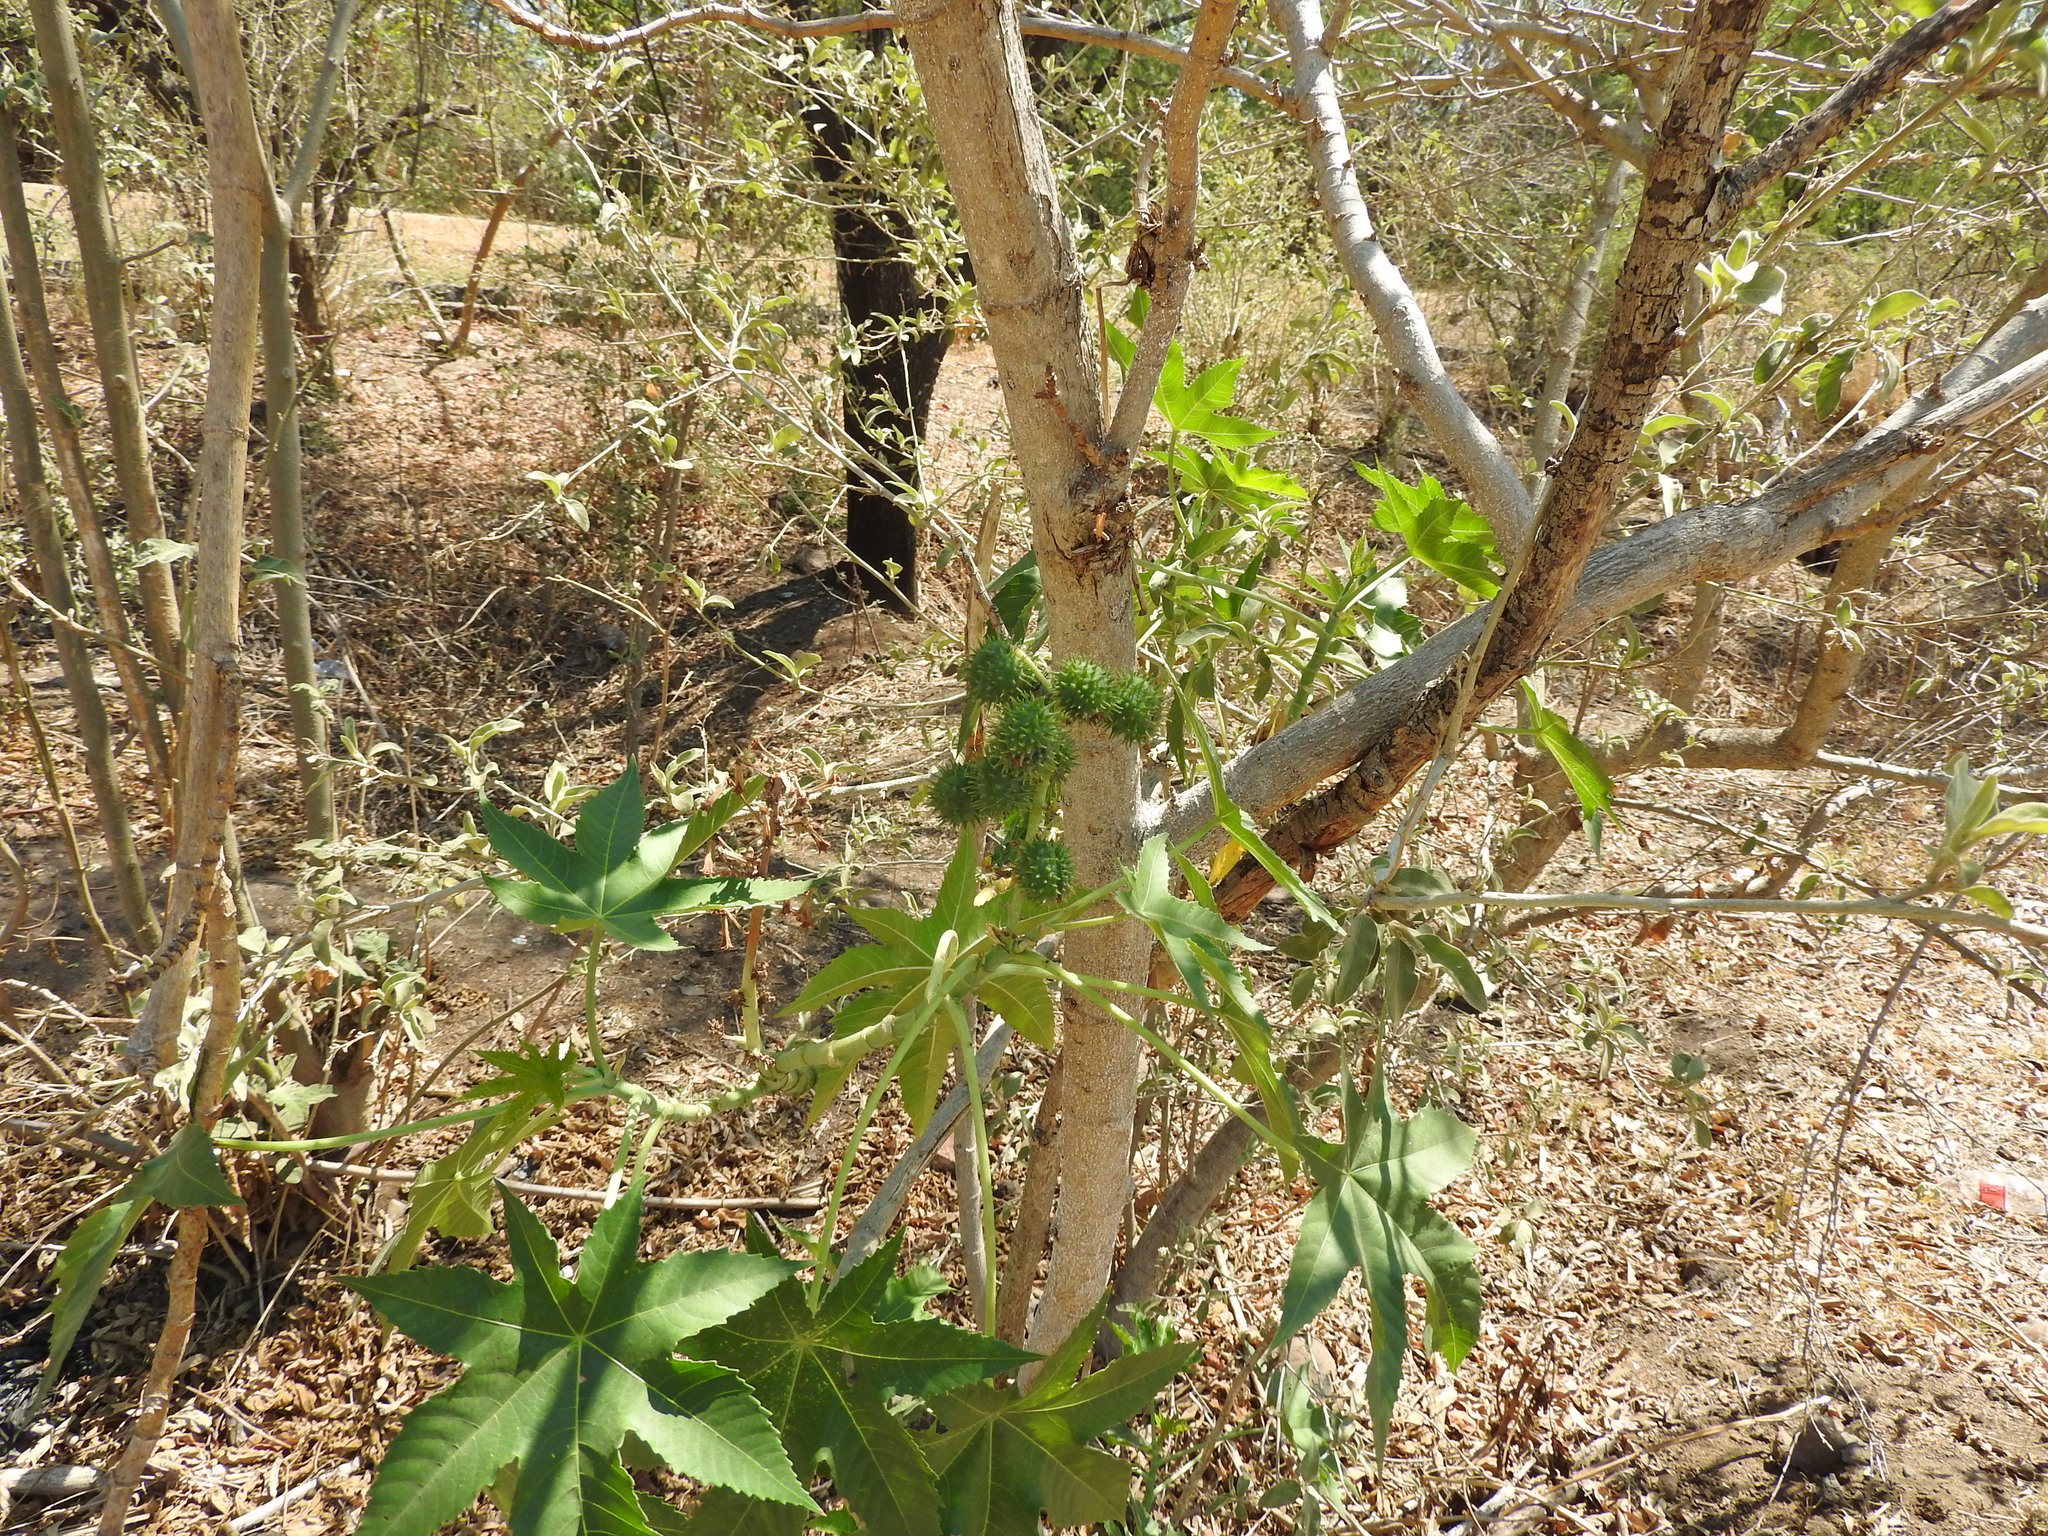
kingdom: Plantae
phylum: Tracheophyta
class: Magnoliopsida
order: Malpighiales
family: Euphorbiaceae
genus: Ricinus
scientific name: Ricinus communis
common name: Castor-oil-plant
